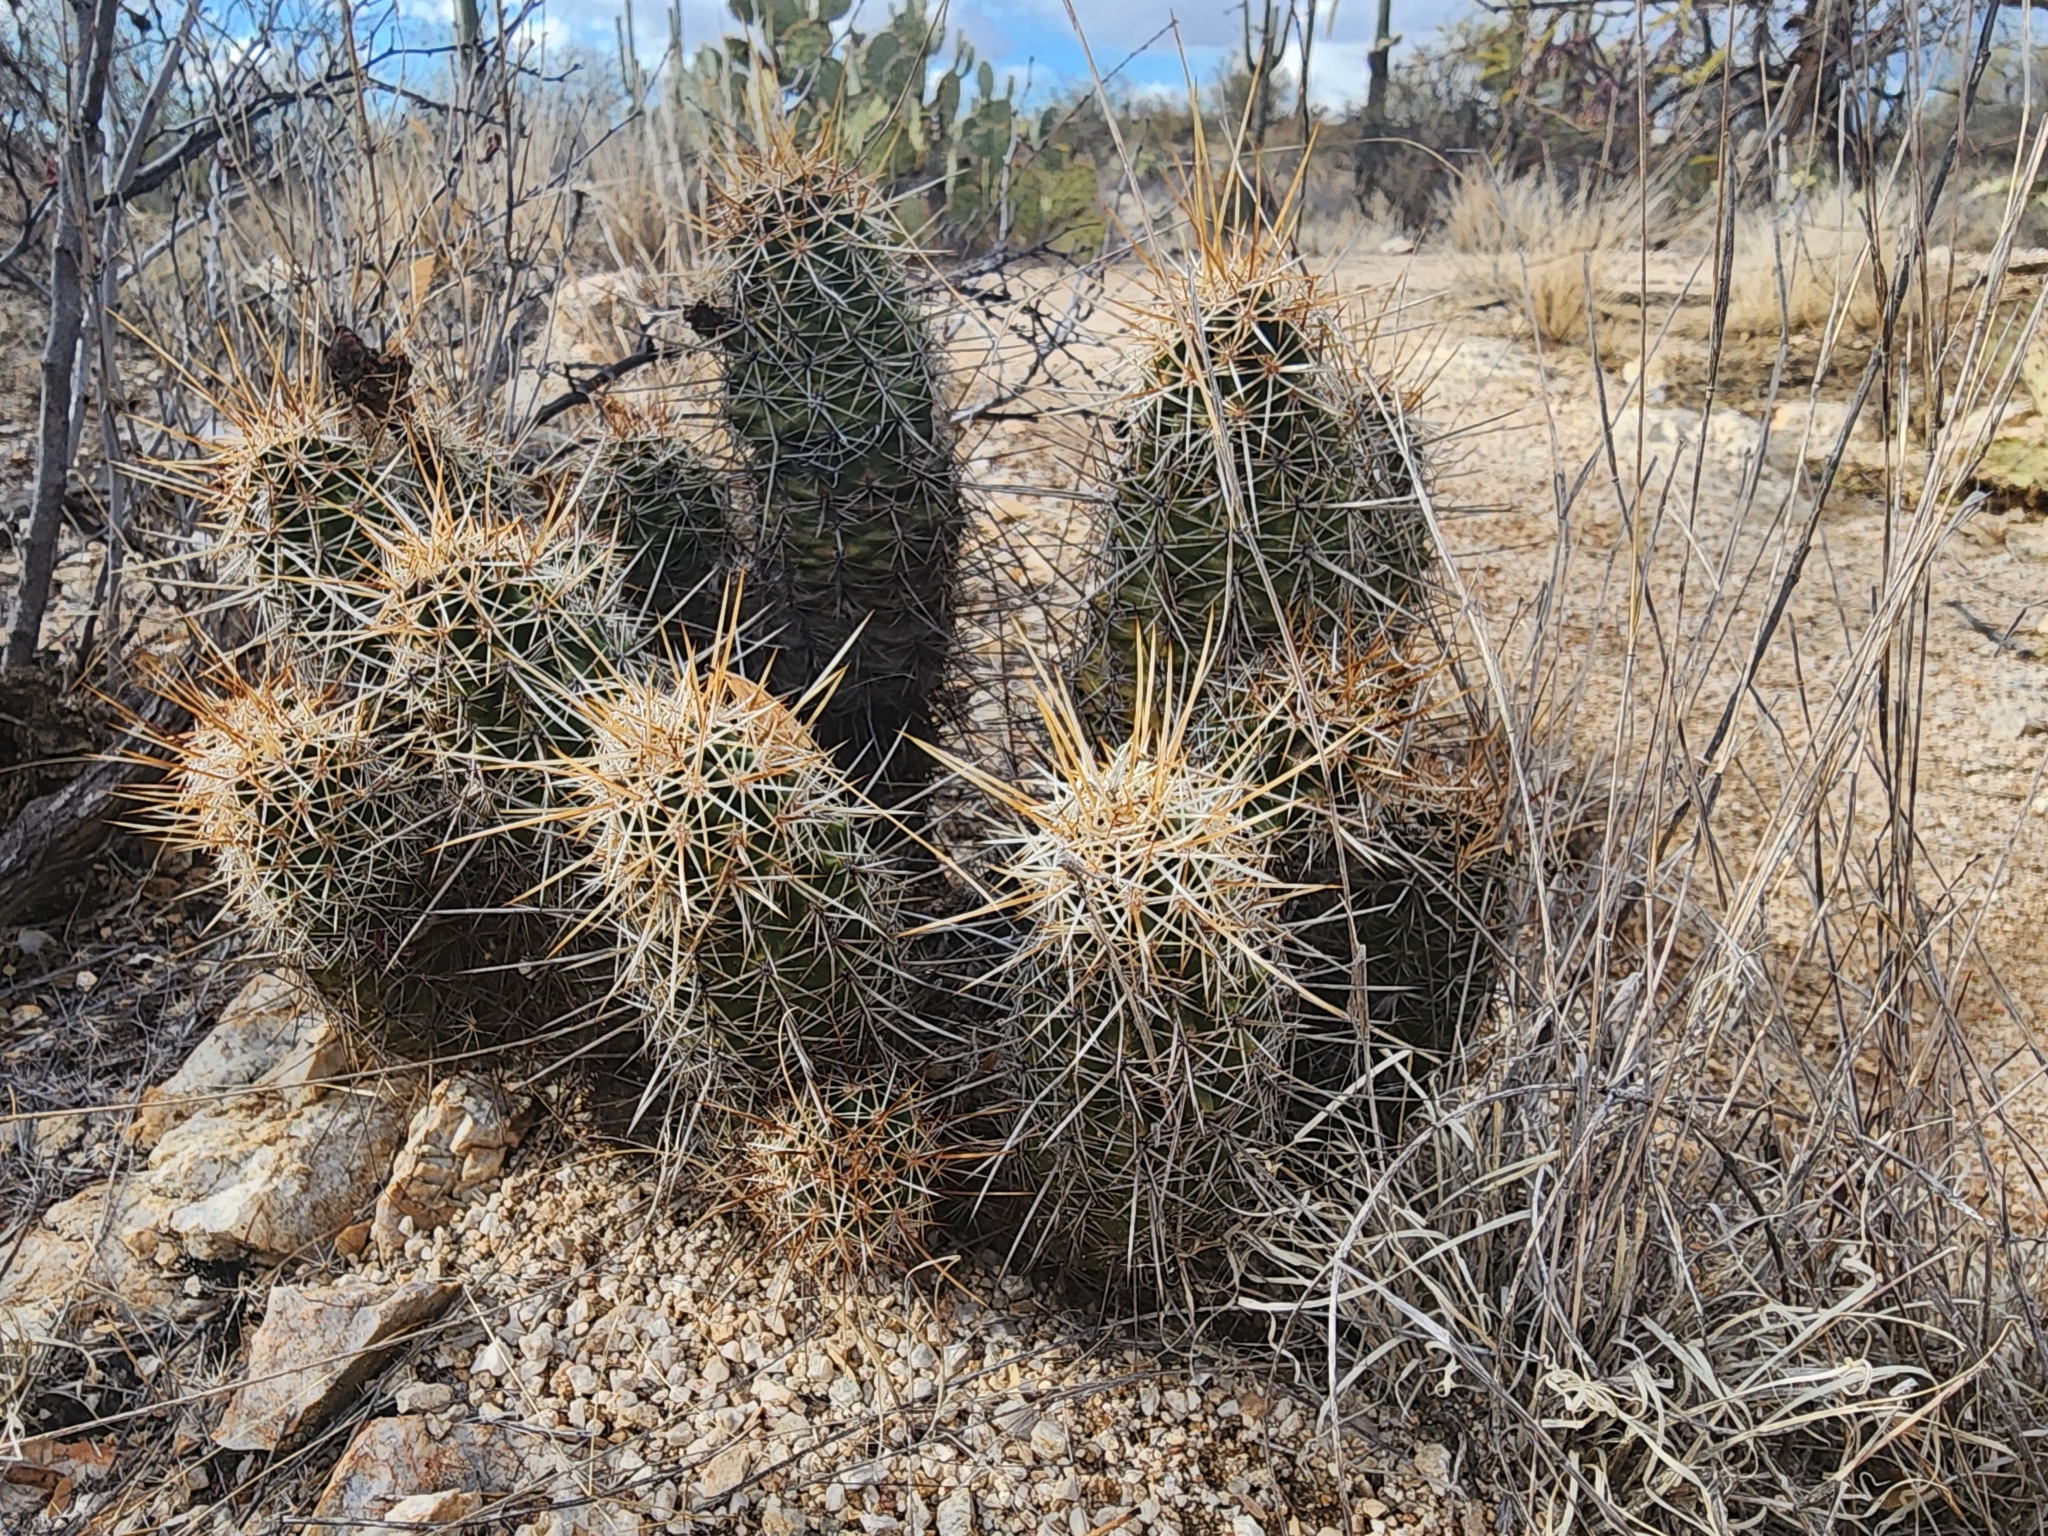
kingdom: Plantae
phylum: Tracheophyta
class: Magnoliopsida
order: Caryophyllales
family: Cactaceae
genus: Echinocereus
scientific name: Echinocereus fasciculatus
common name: Bundle hedgehog
